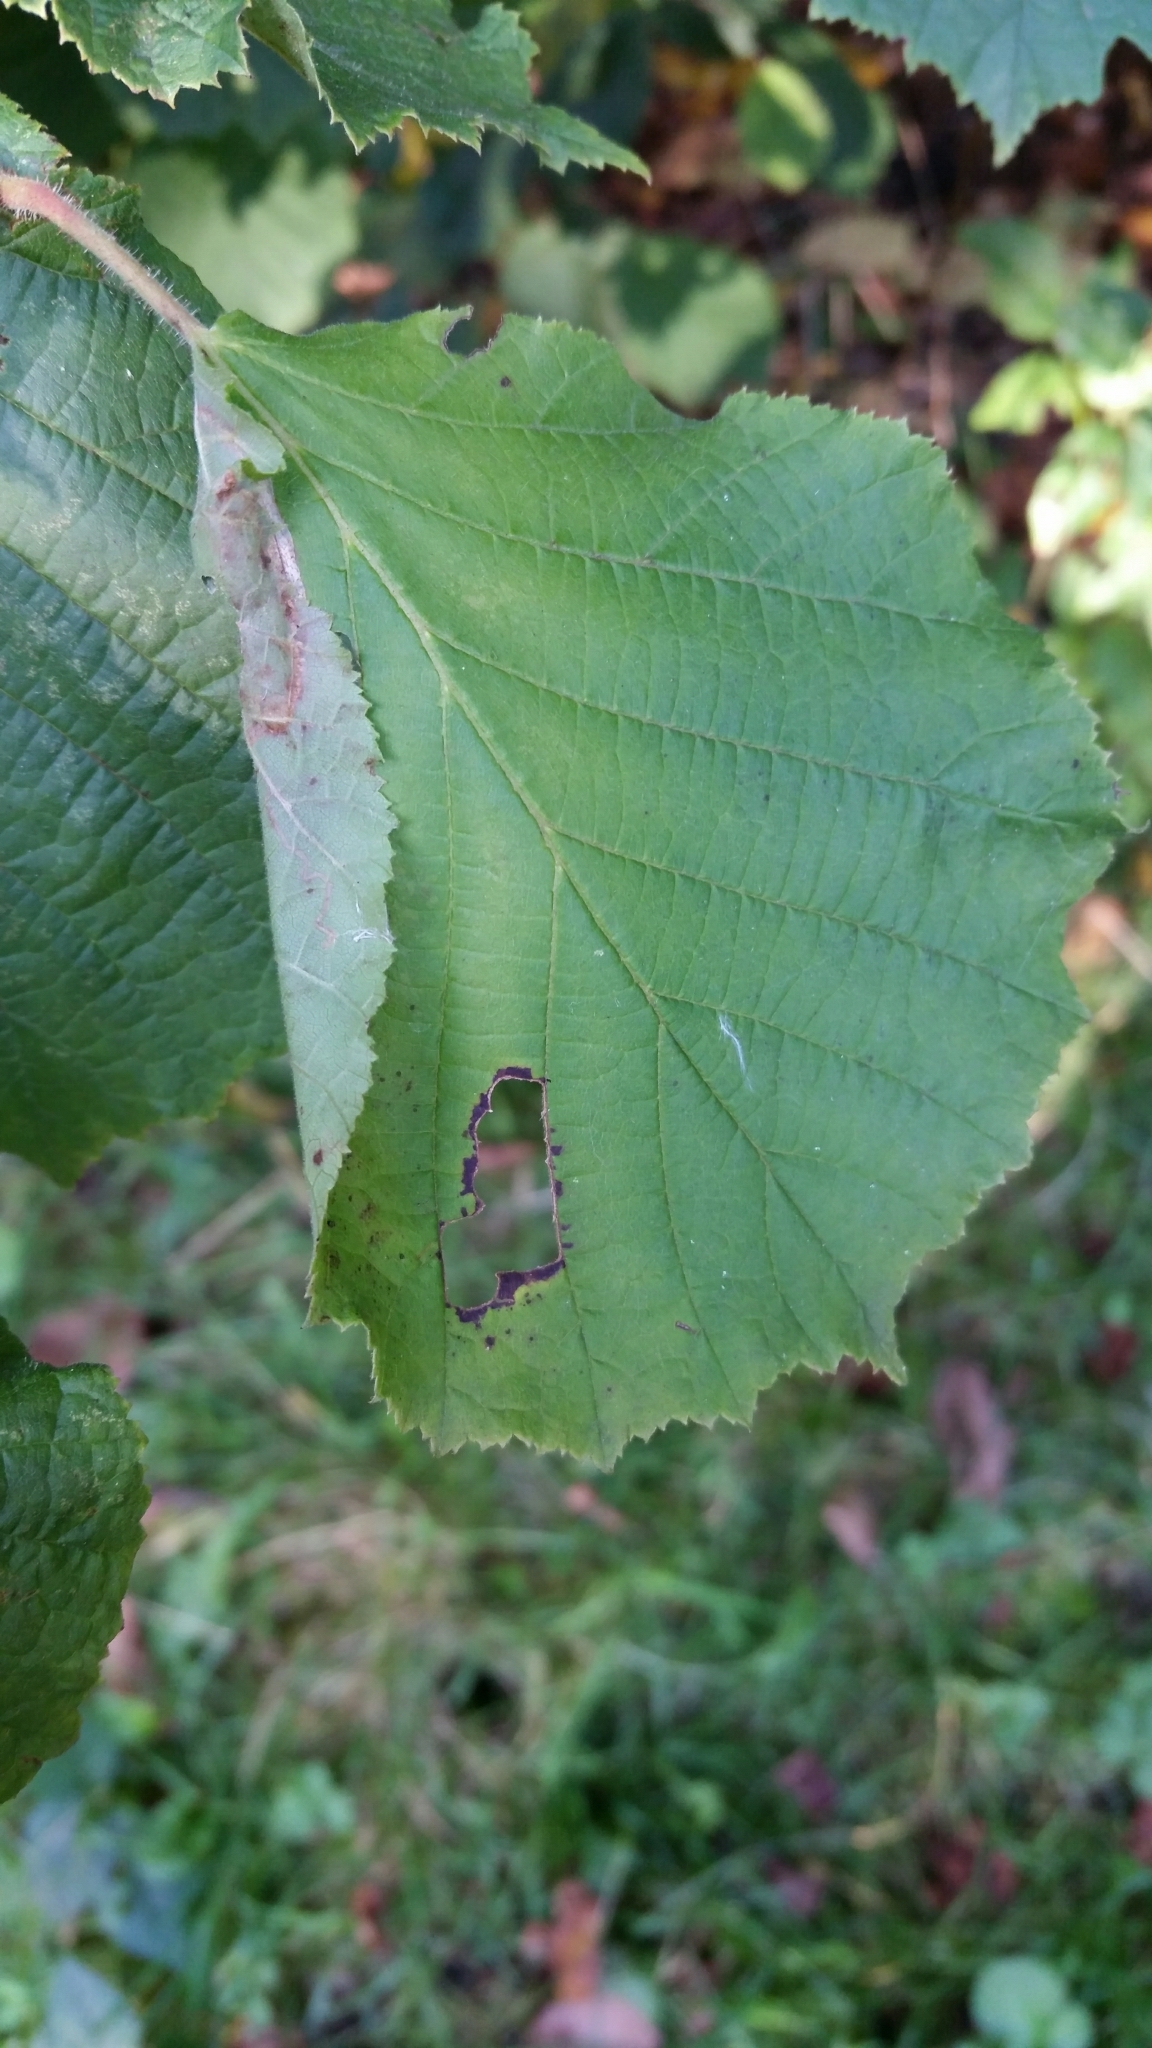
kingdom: Animalia
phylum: Arthropoda
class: Insecta
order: Lepidoptera
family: Gracillariidae
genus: Parornix
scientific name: Parornix devoniella
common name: Hazel slender
